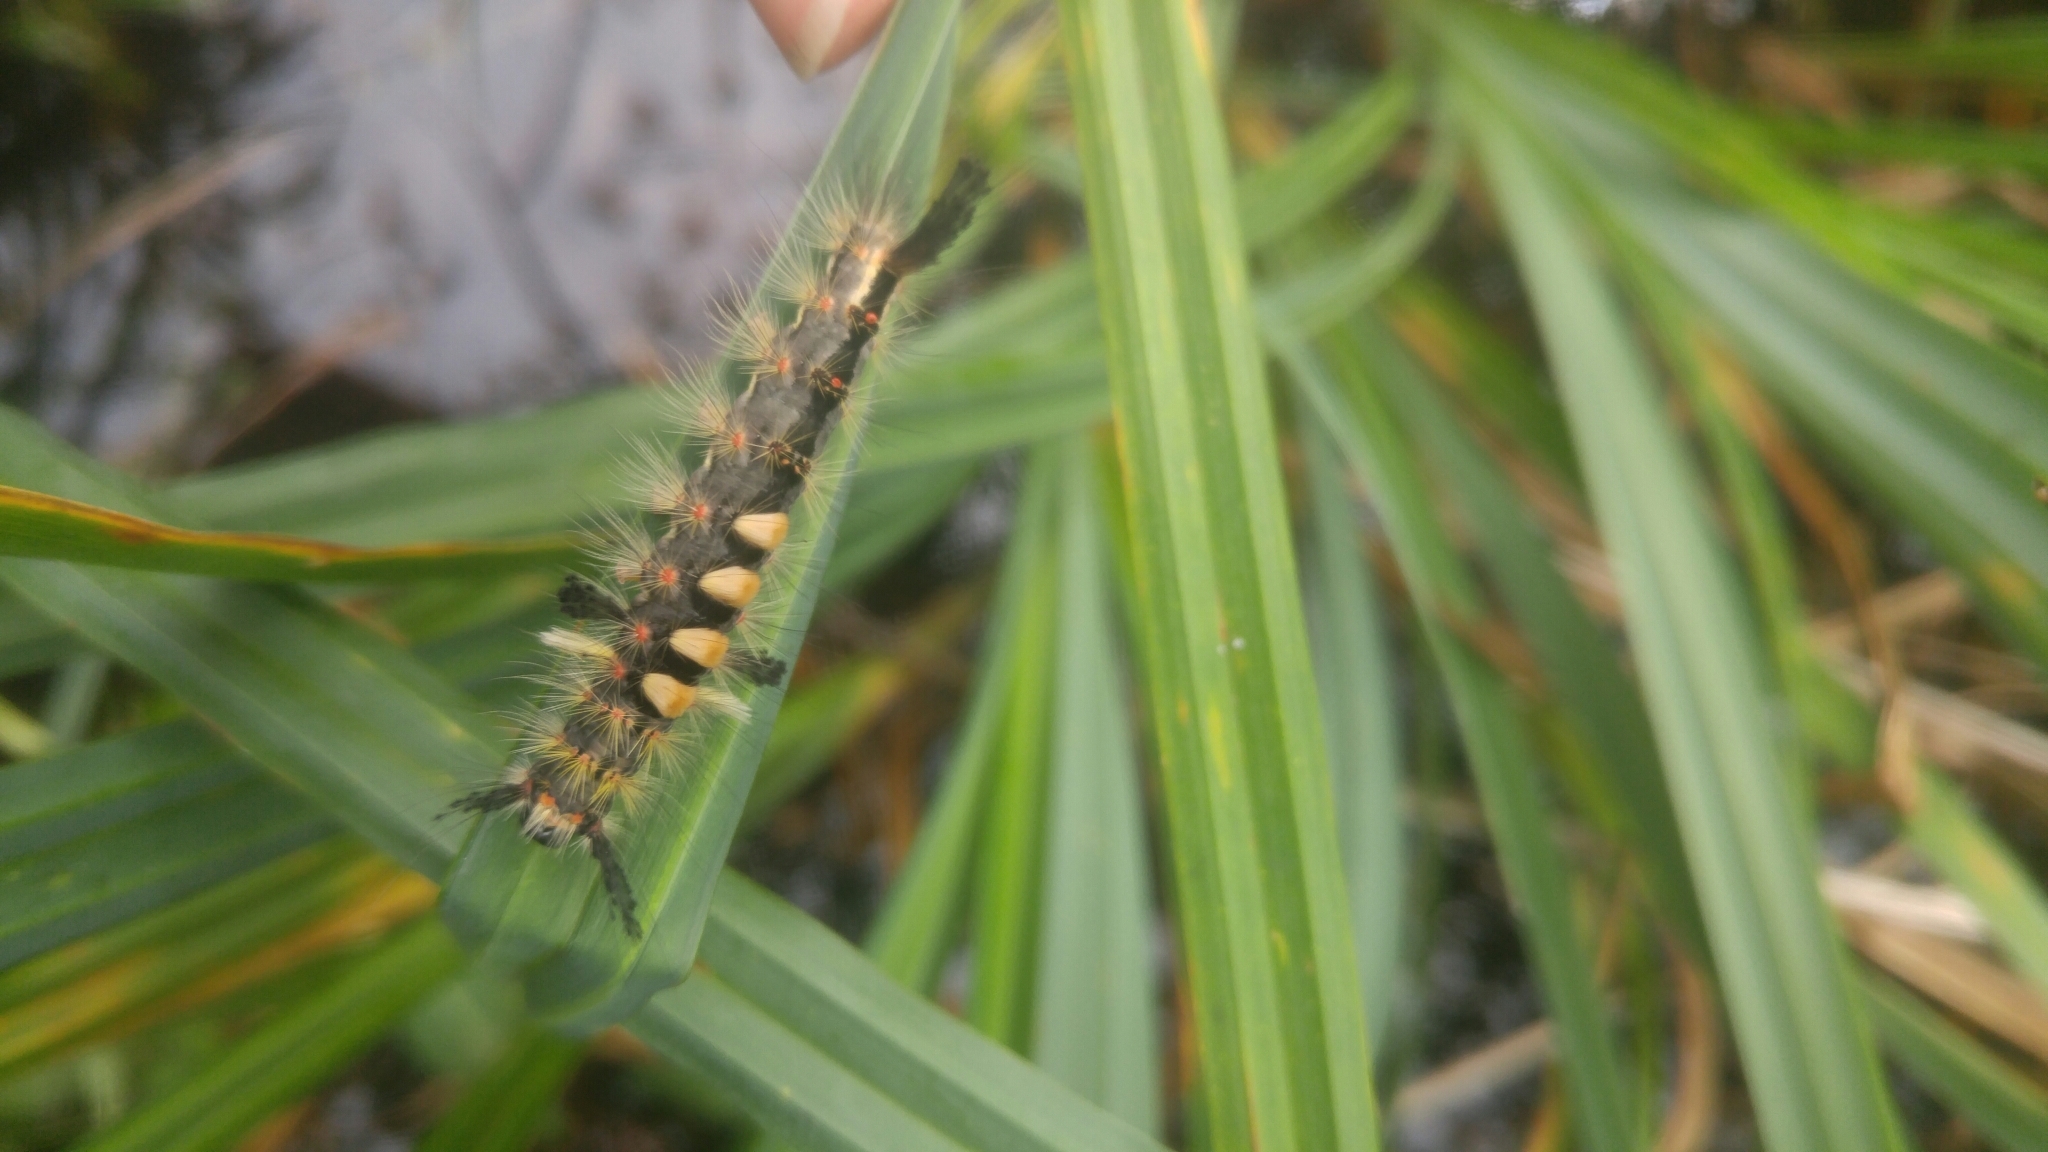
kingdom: Animalia
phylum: Arthropoda
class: Insecta
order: Lepidoptera
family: Erebidae
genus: Orgyia
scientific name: Orgyia antiqua
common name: Vapourer
